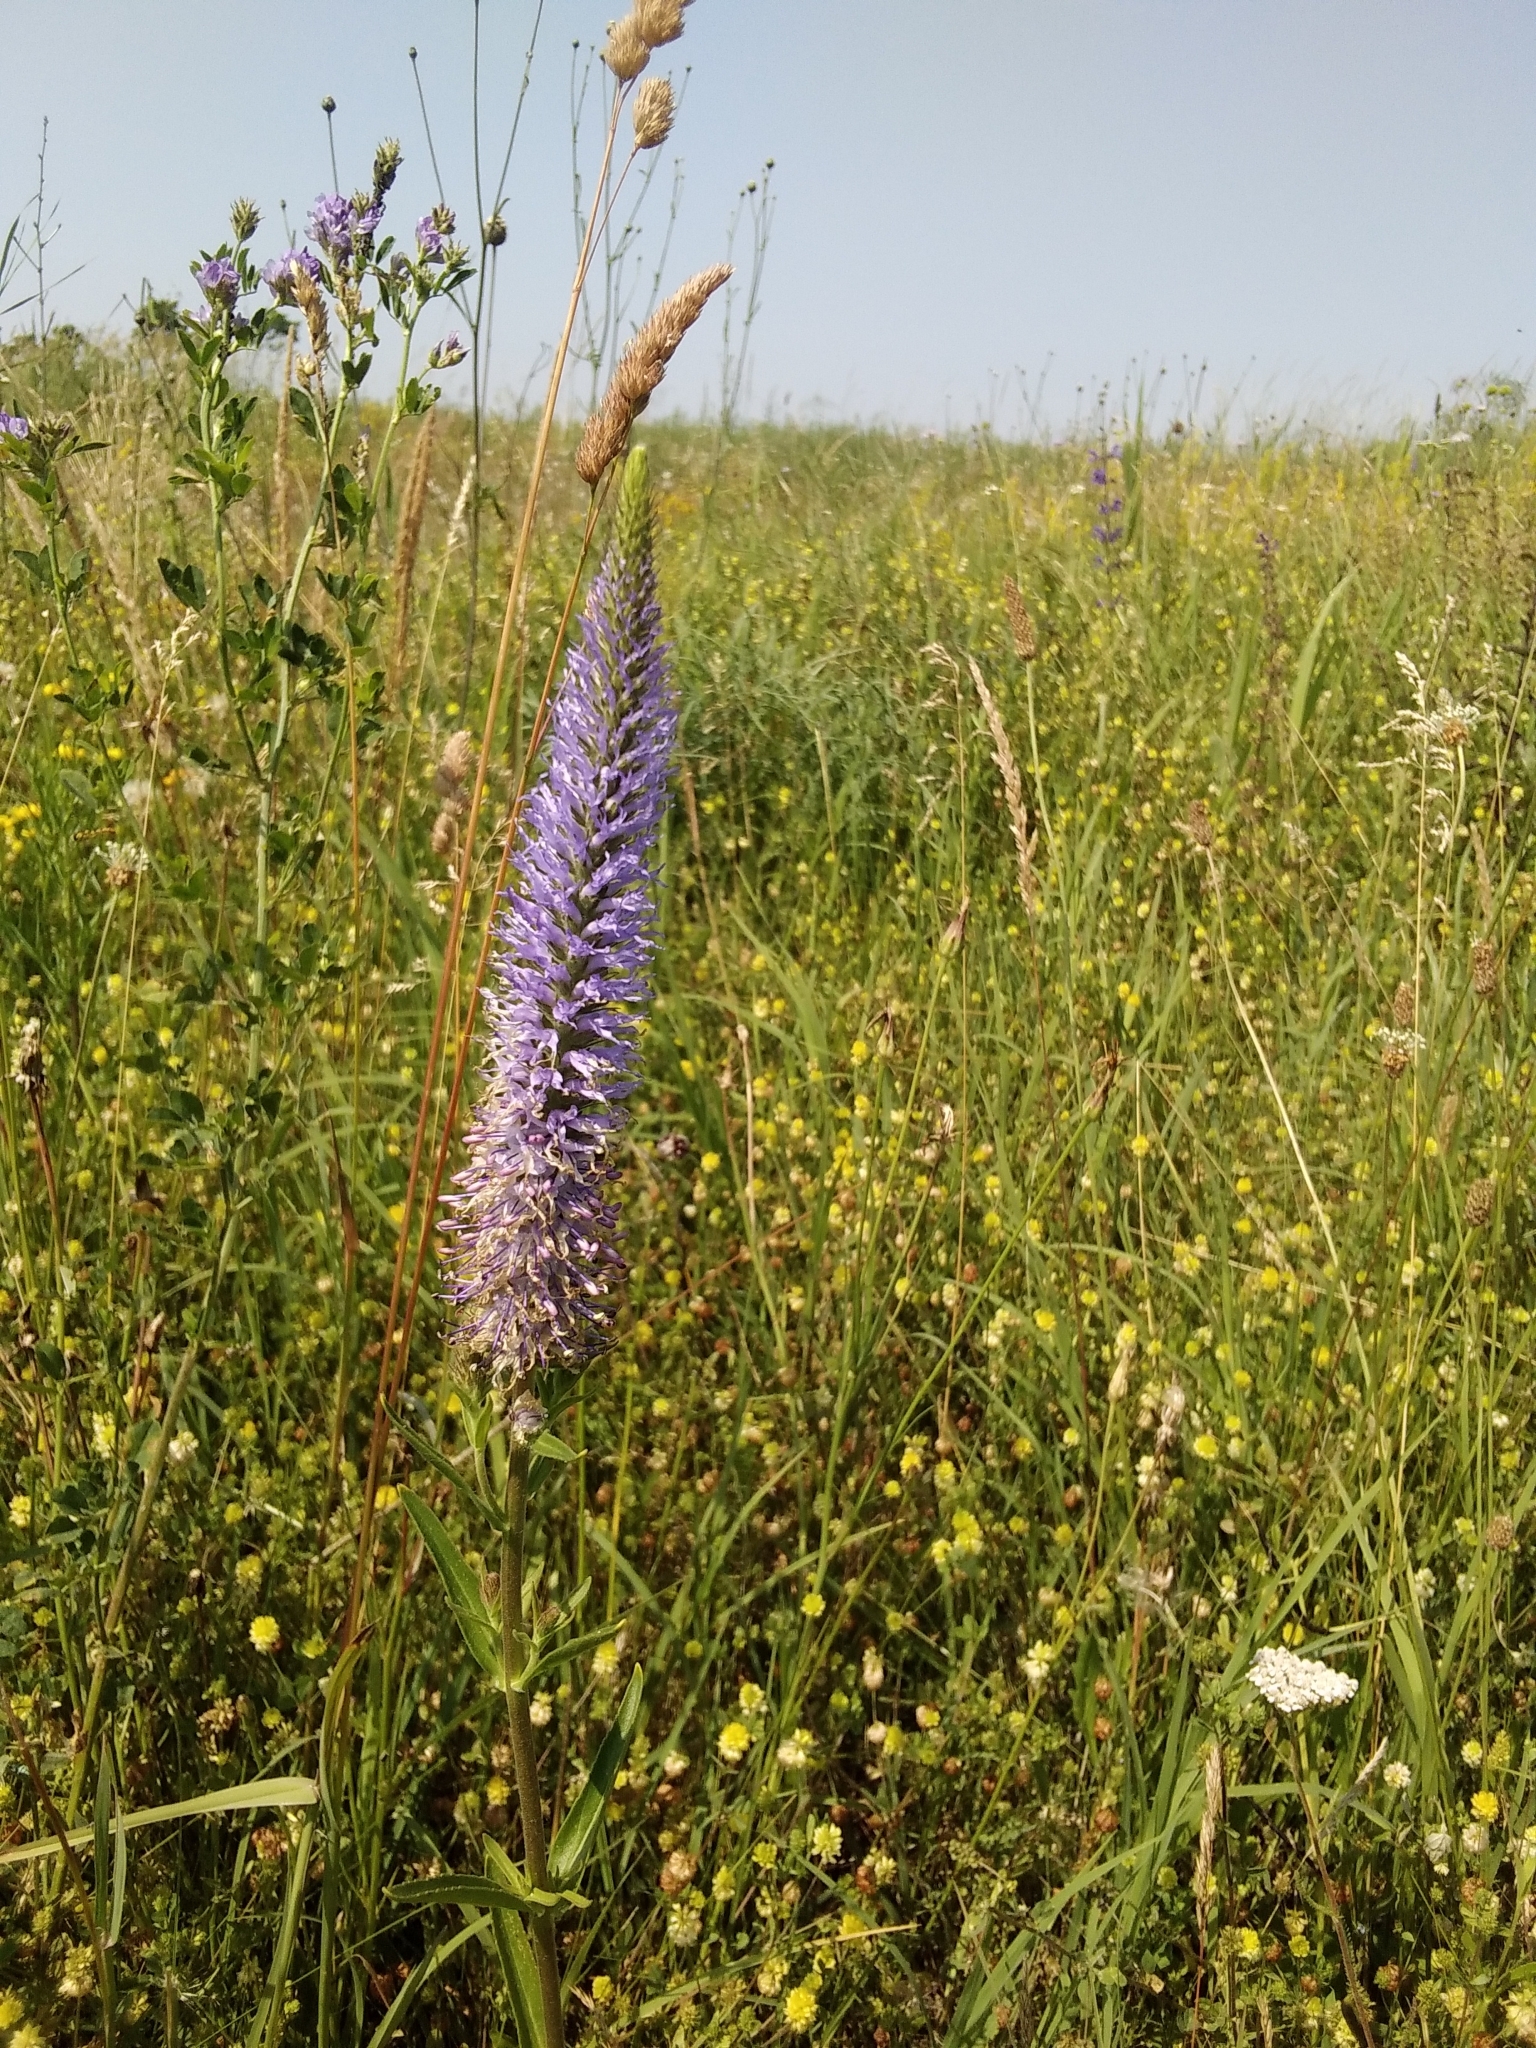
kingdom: Plantae
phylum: Tracheophyta
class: Magnoliopsida
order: Lamiales
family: Plantaginaceae
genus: Veronica
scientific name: Veronica orchidea
